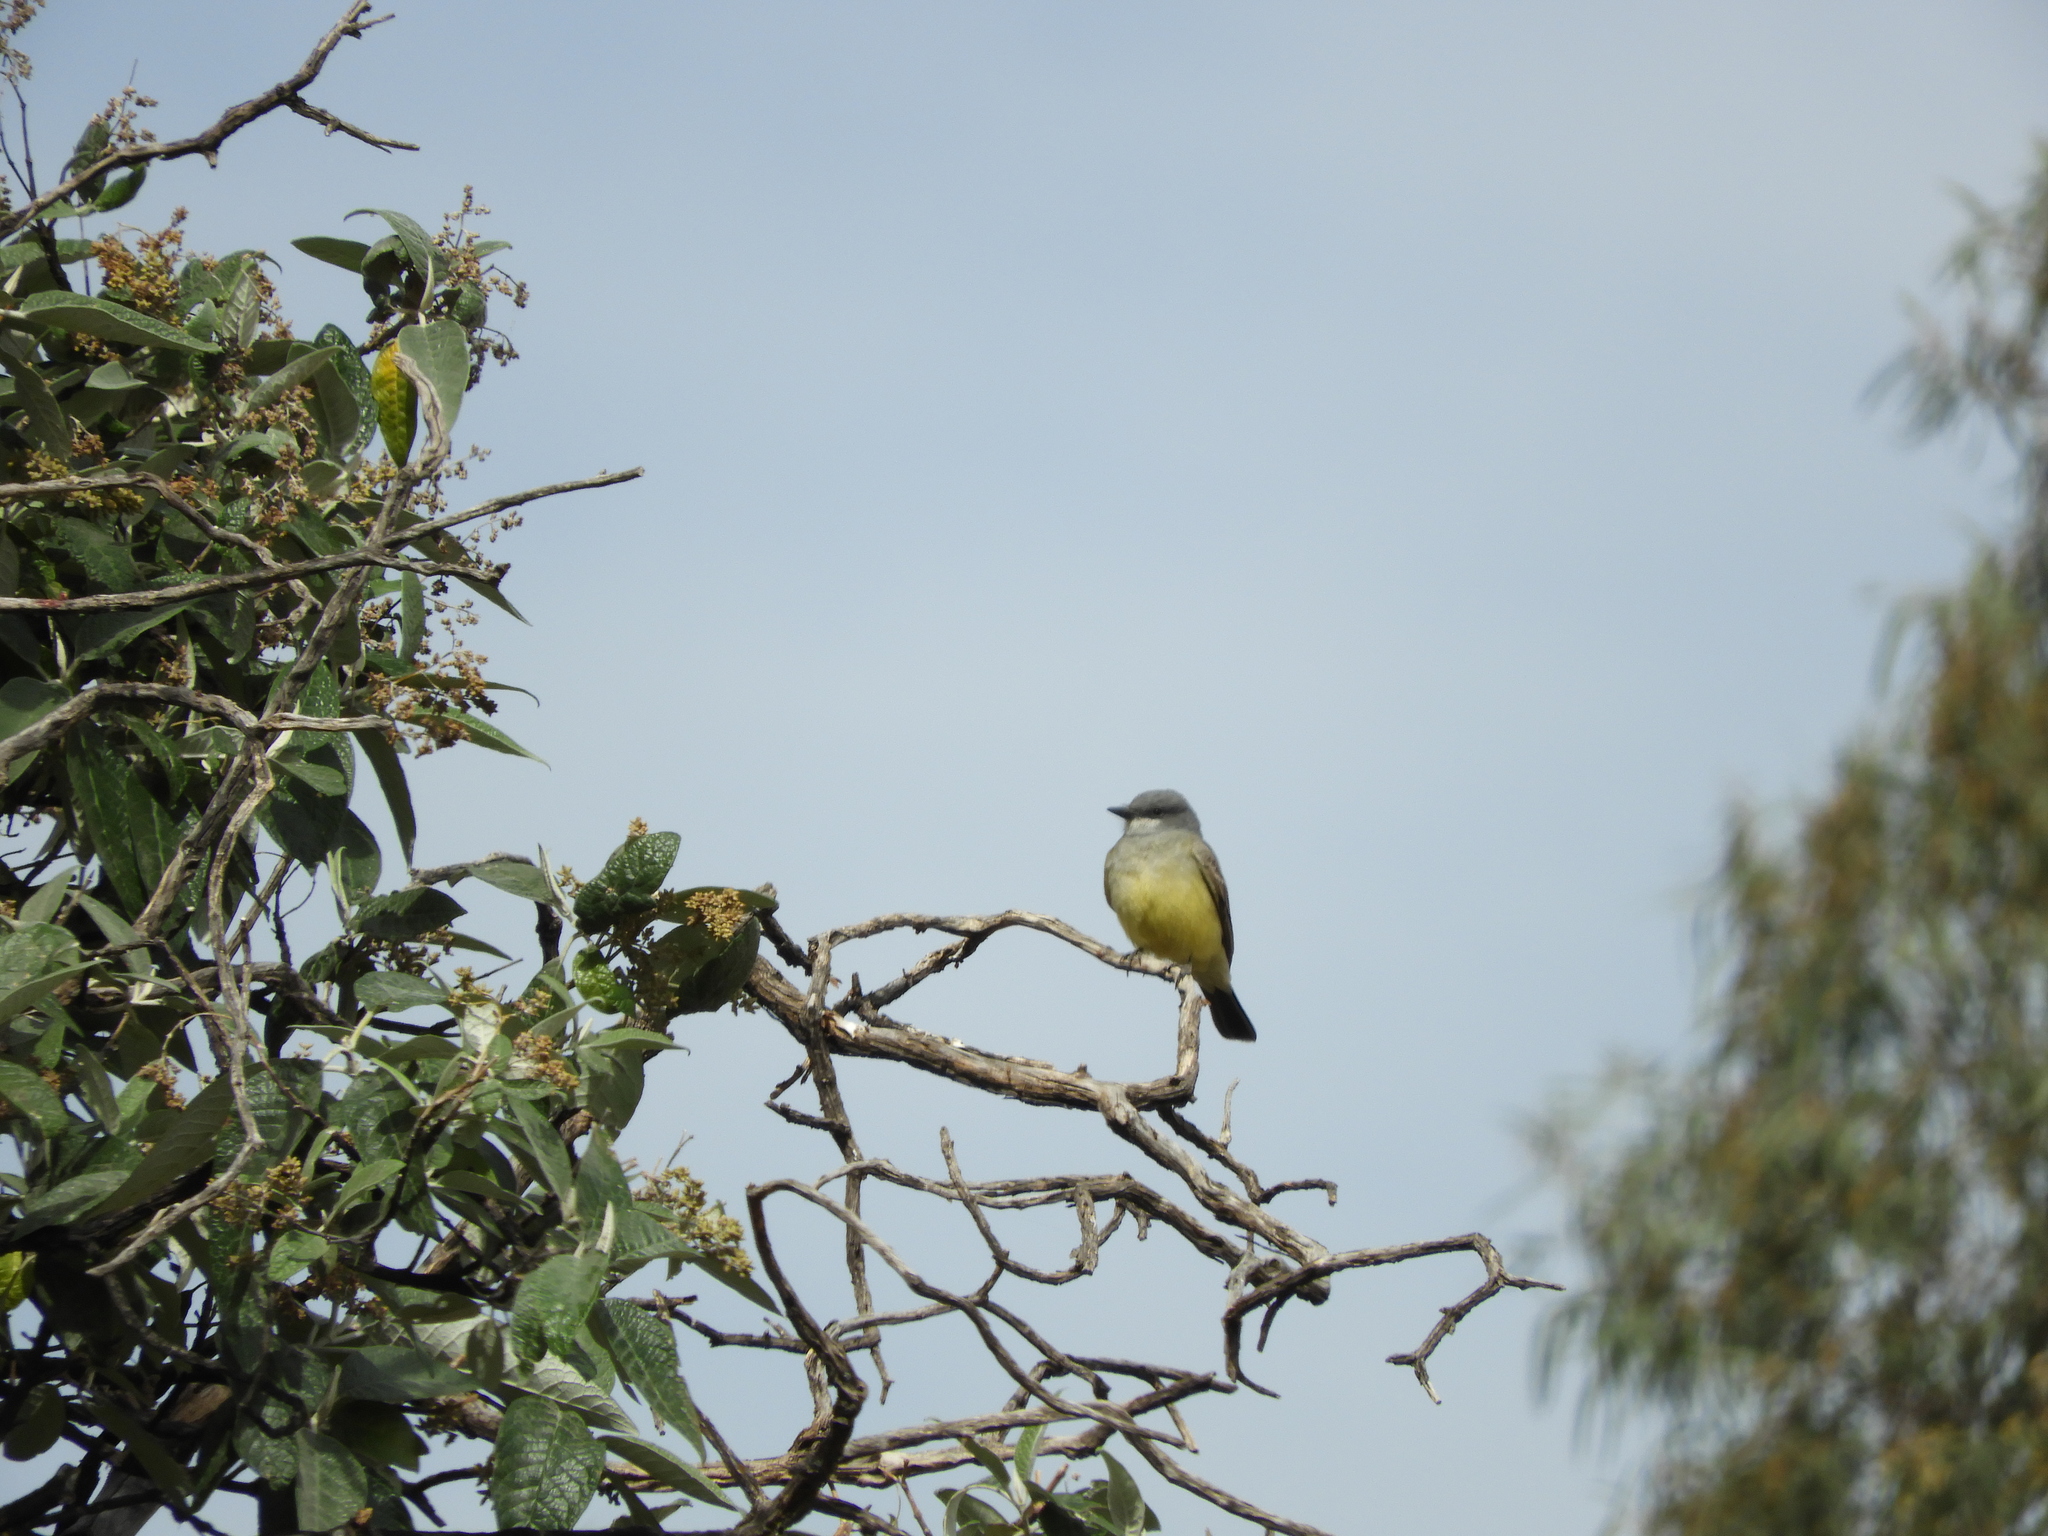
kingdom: Animalia
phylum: Chordata
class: Aves
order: Passeriformes
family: Tyrannidae
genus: Tyrannus
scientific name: Tyrannus vociferans
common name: Cassin's kingbird
